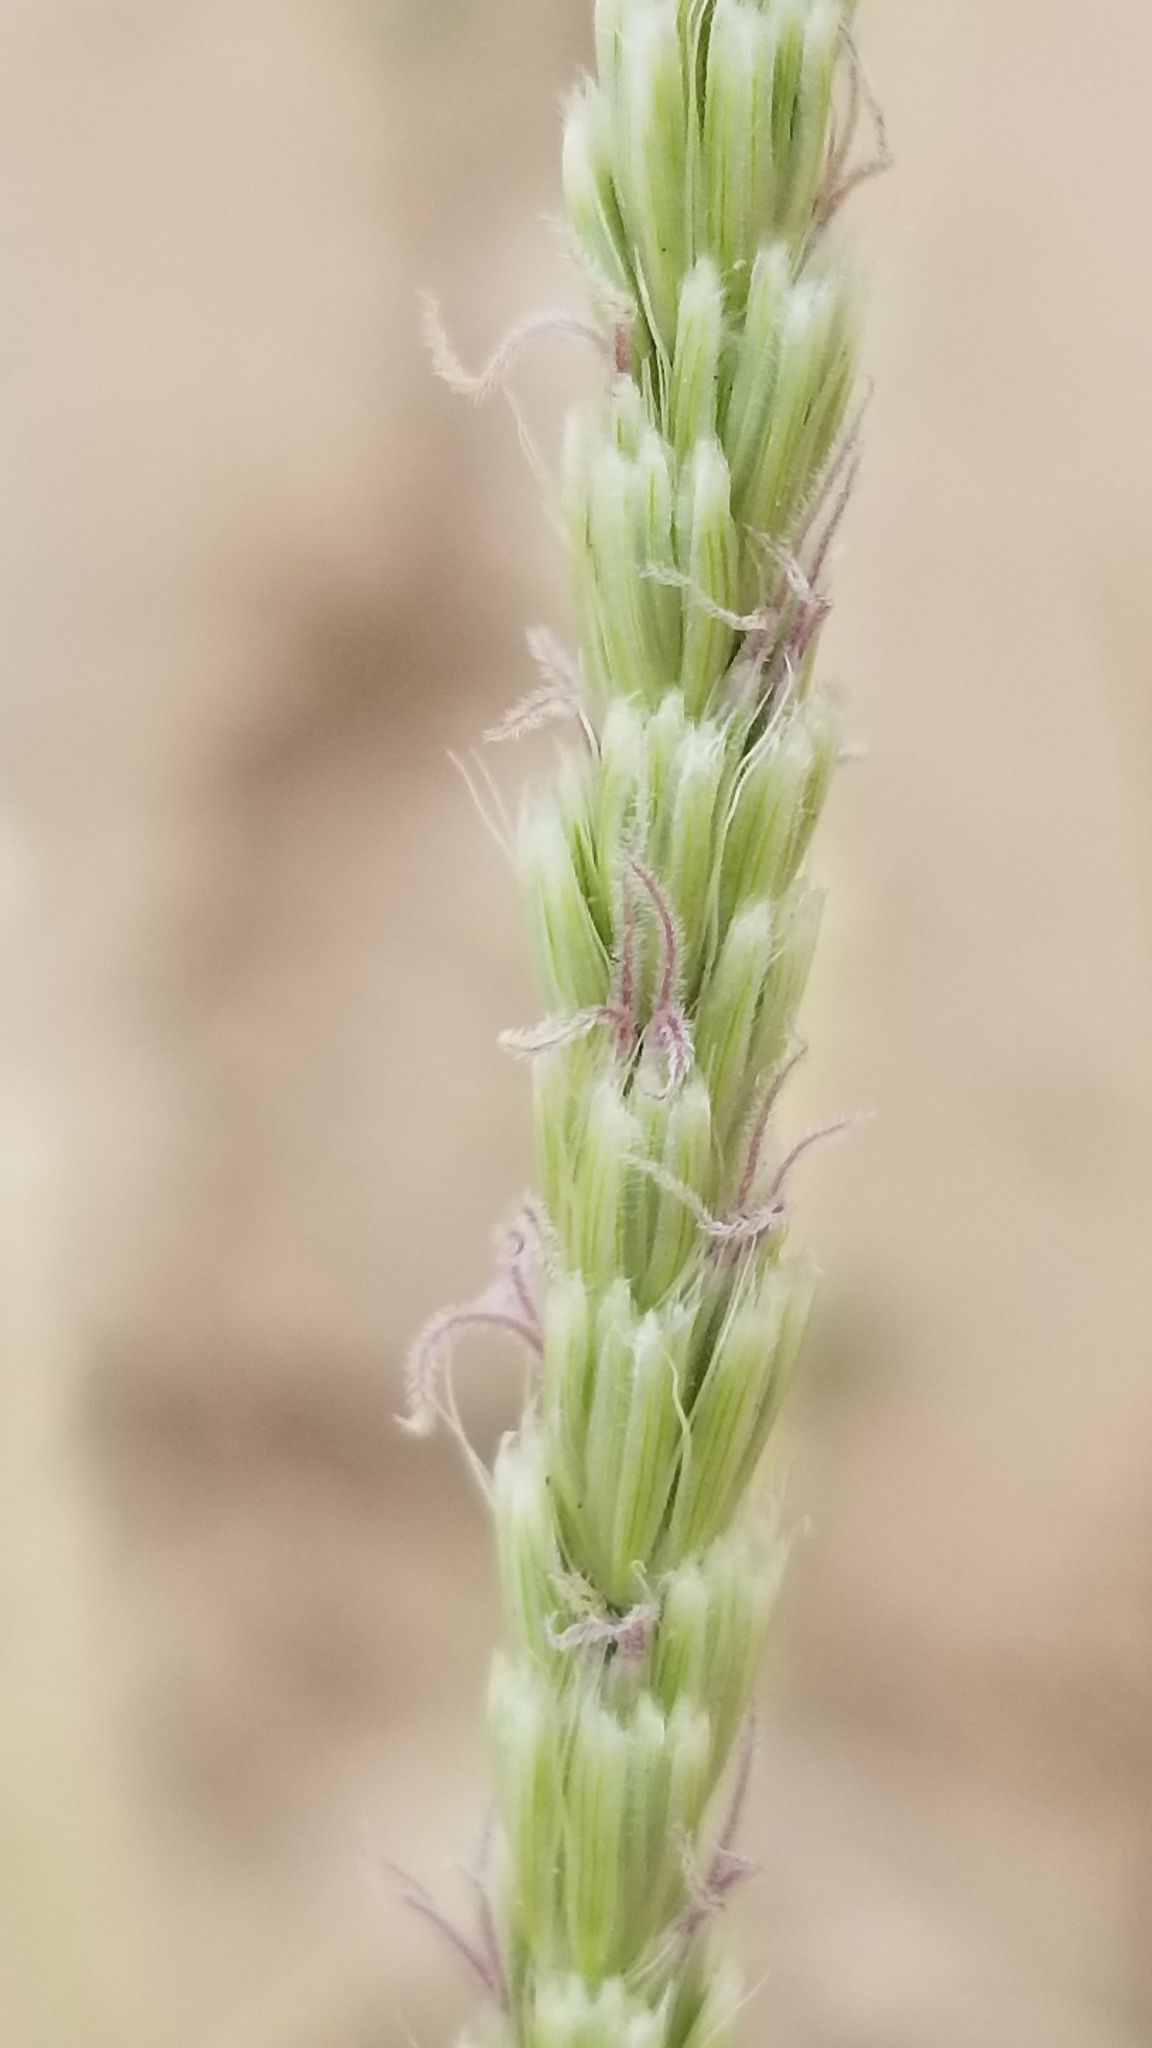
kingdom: Plantae
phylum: Tracheophyta
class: Liliopsida
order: Poales
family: Poaceae
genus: Hilaria
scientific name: Hilaria rigida
